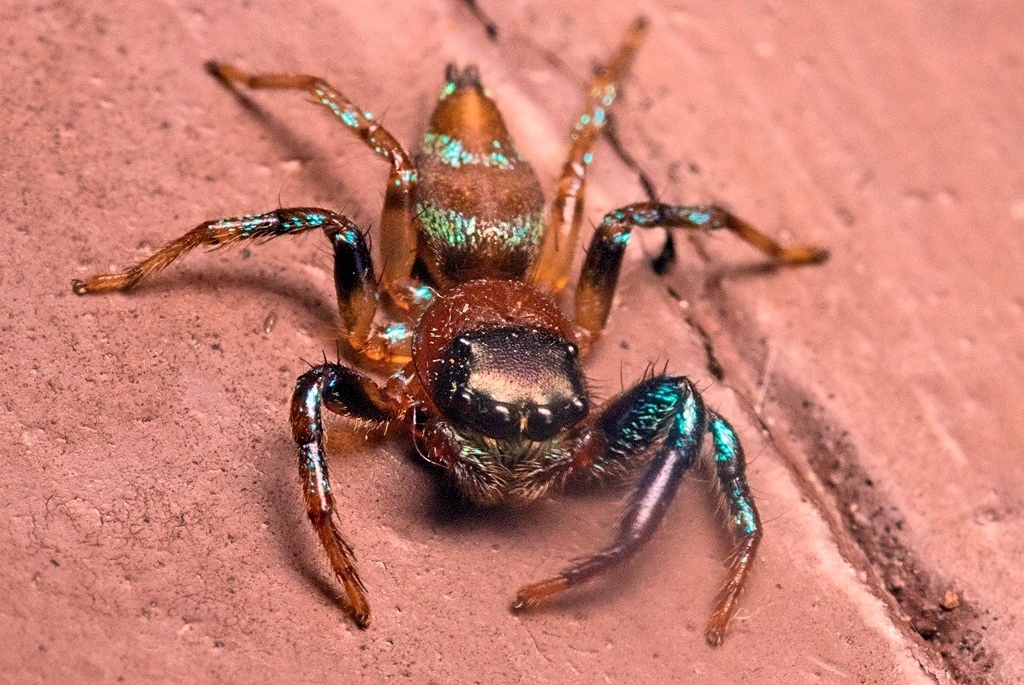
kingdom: Animalia
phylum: Arthropoda
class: Arachnida
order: Araneae
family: Salticidae
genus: Thiania
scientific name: Thiania bhamoensis
